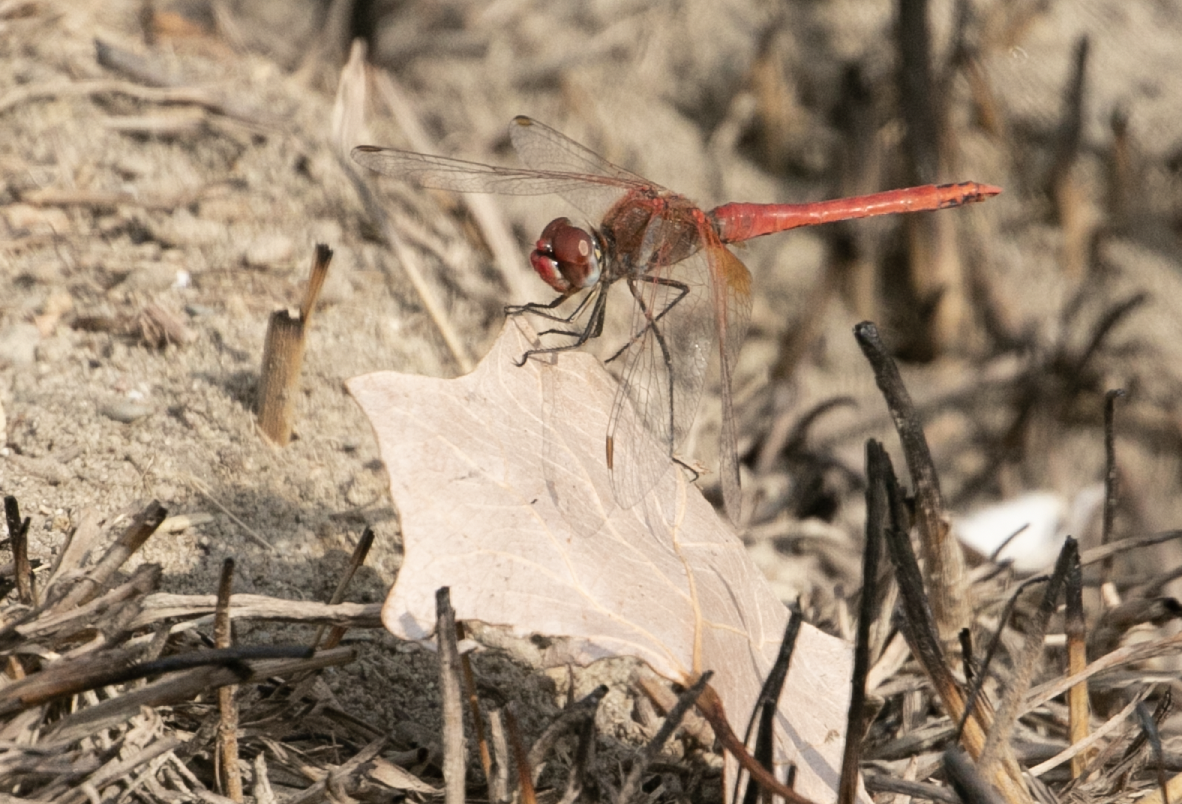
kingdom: Animalia
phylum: Arthropoda
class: Insecta
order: Odonata
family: Libellulidae
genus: Sympetrum
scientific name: Sympetrum fonscolombii
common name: Red-veined darter
